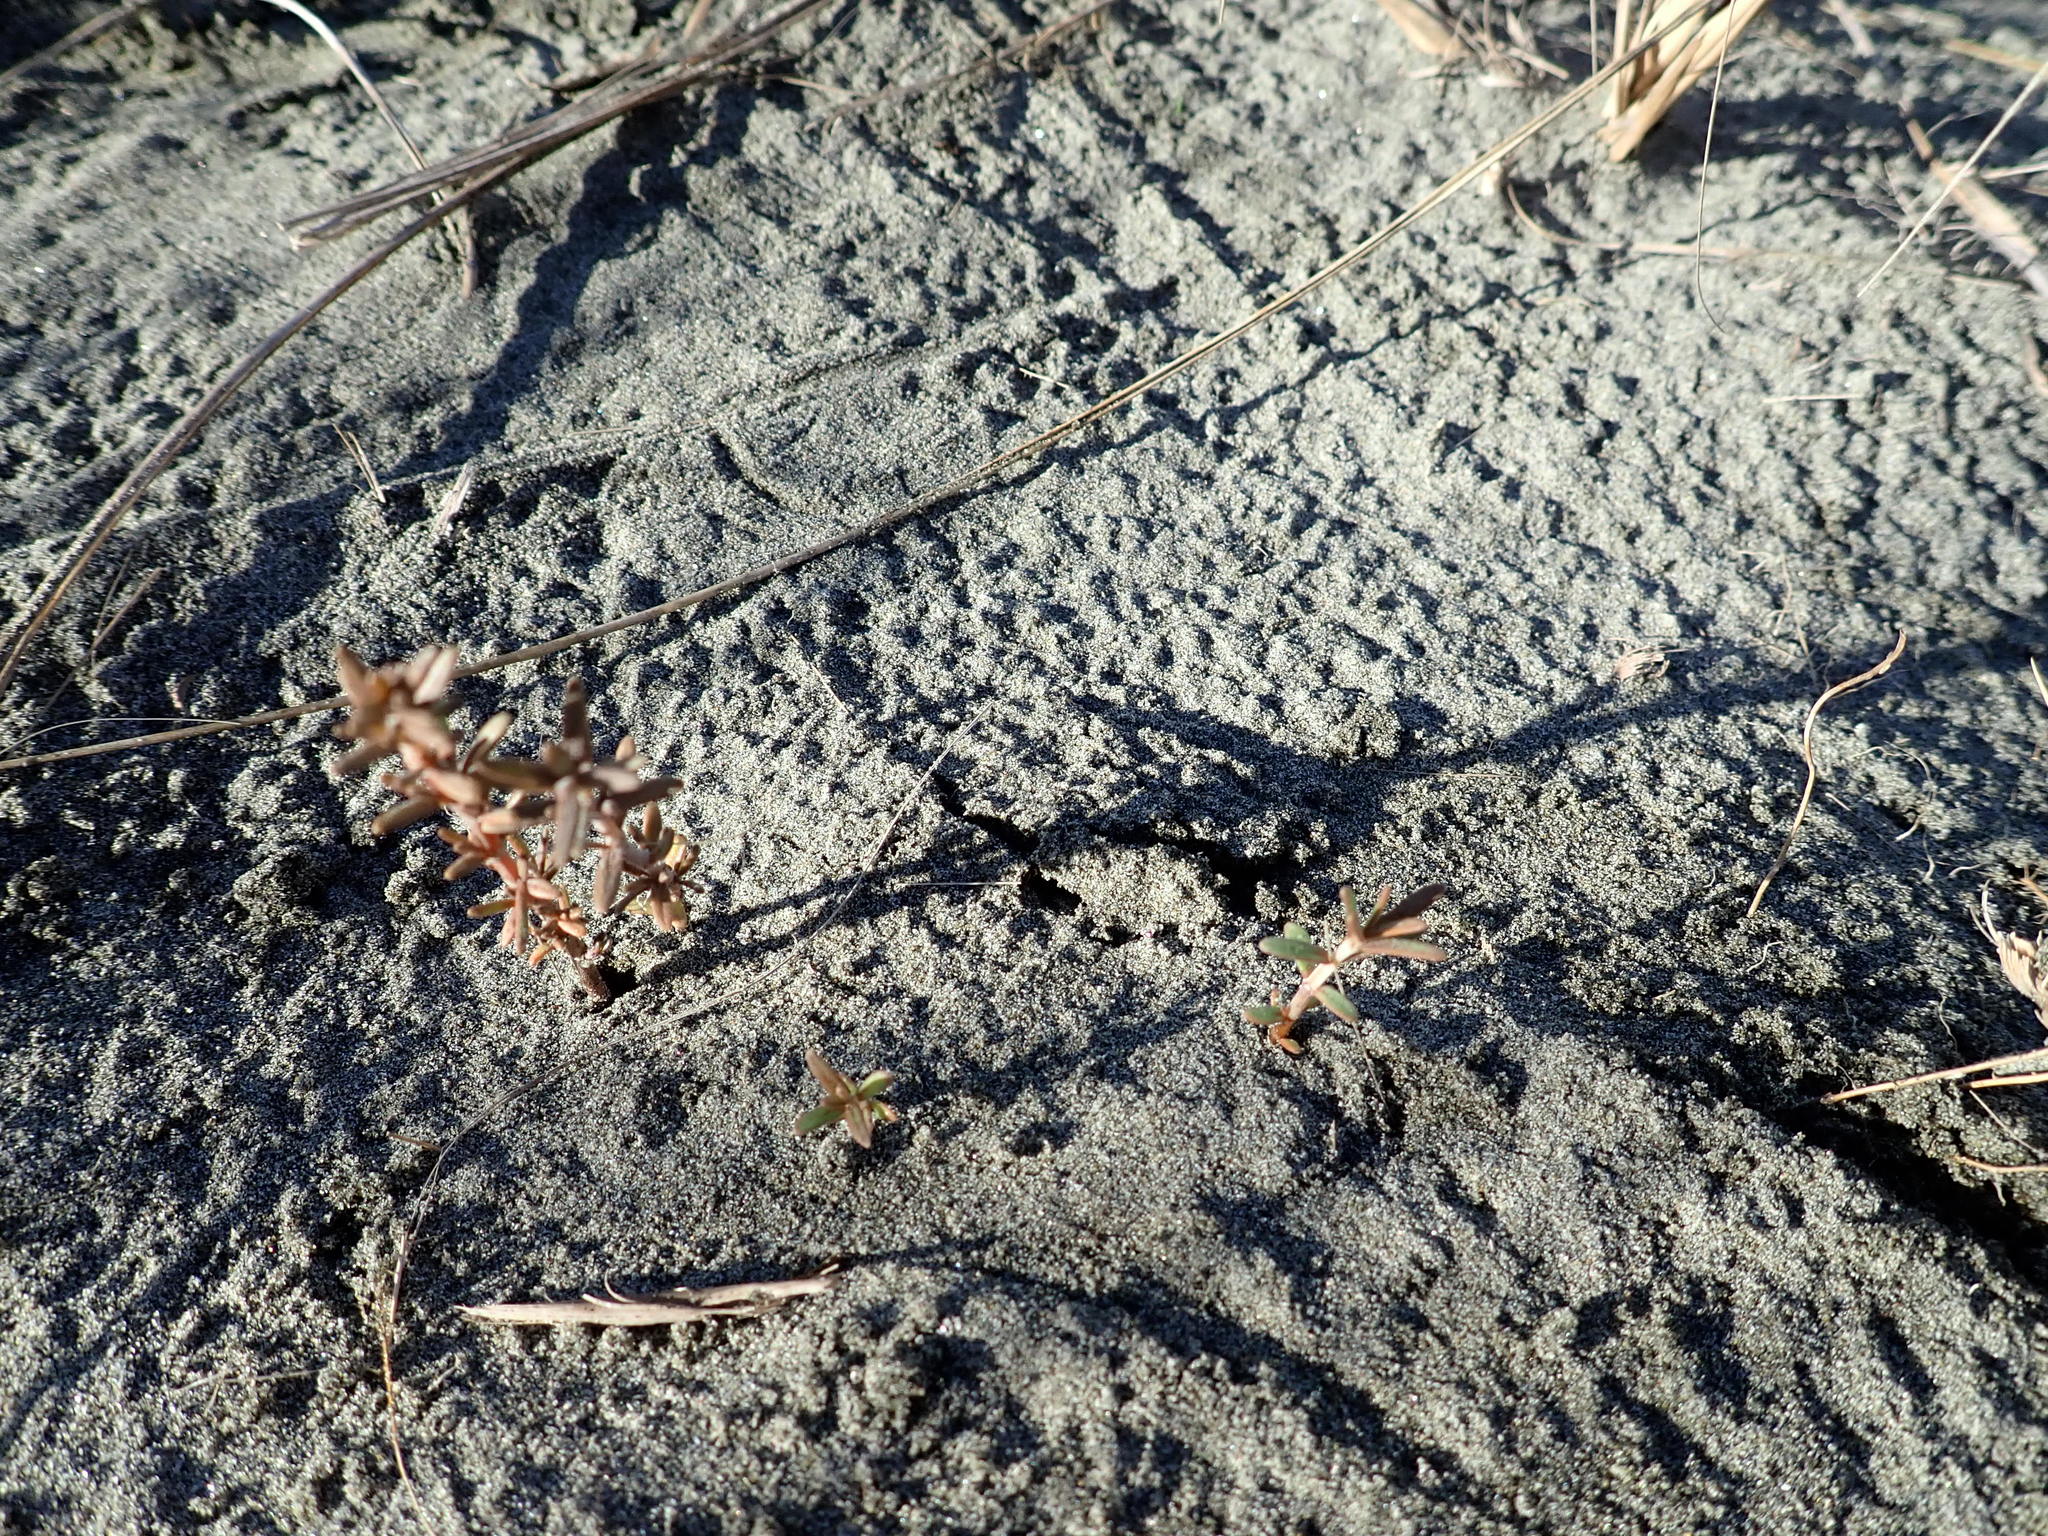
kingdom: Plantae
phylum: Tracheophyta
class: Magnoliopsida
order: Gentianales
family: Rubiaceae
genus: Coprosma
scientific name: Coprosma acerosa
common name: Sand coprosma
